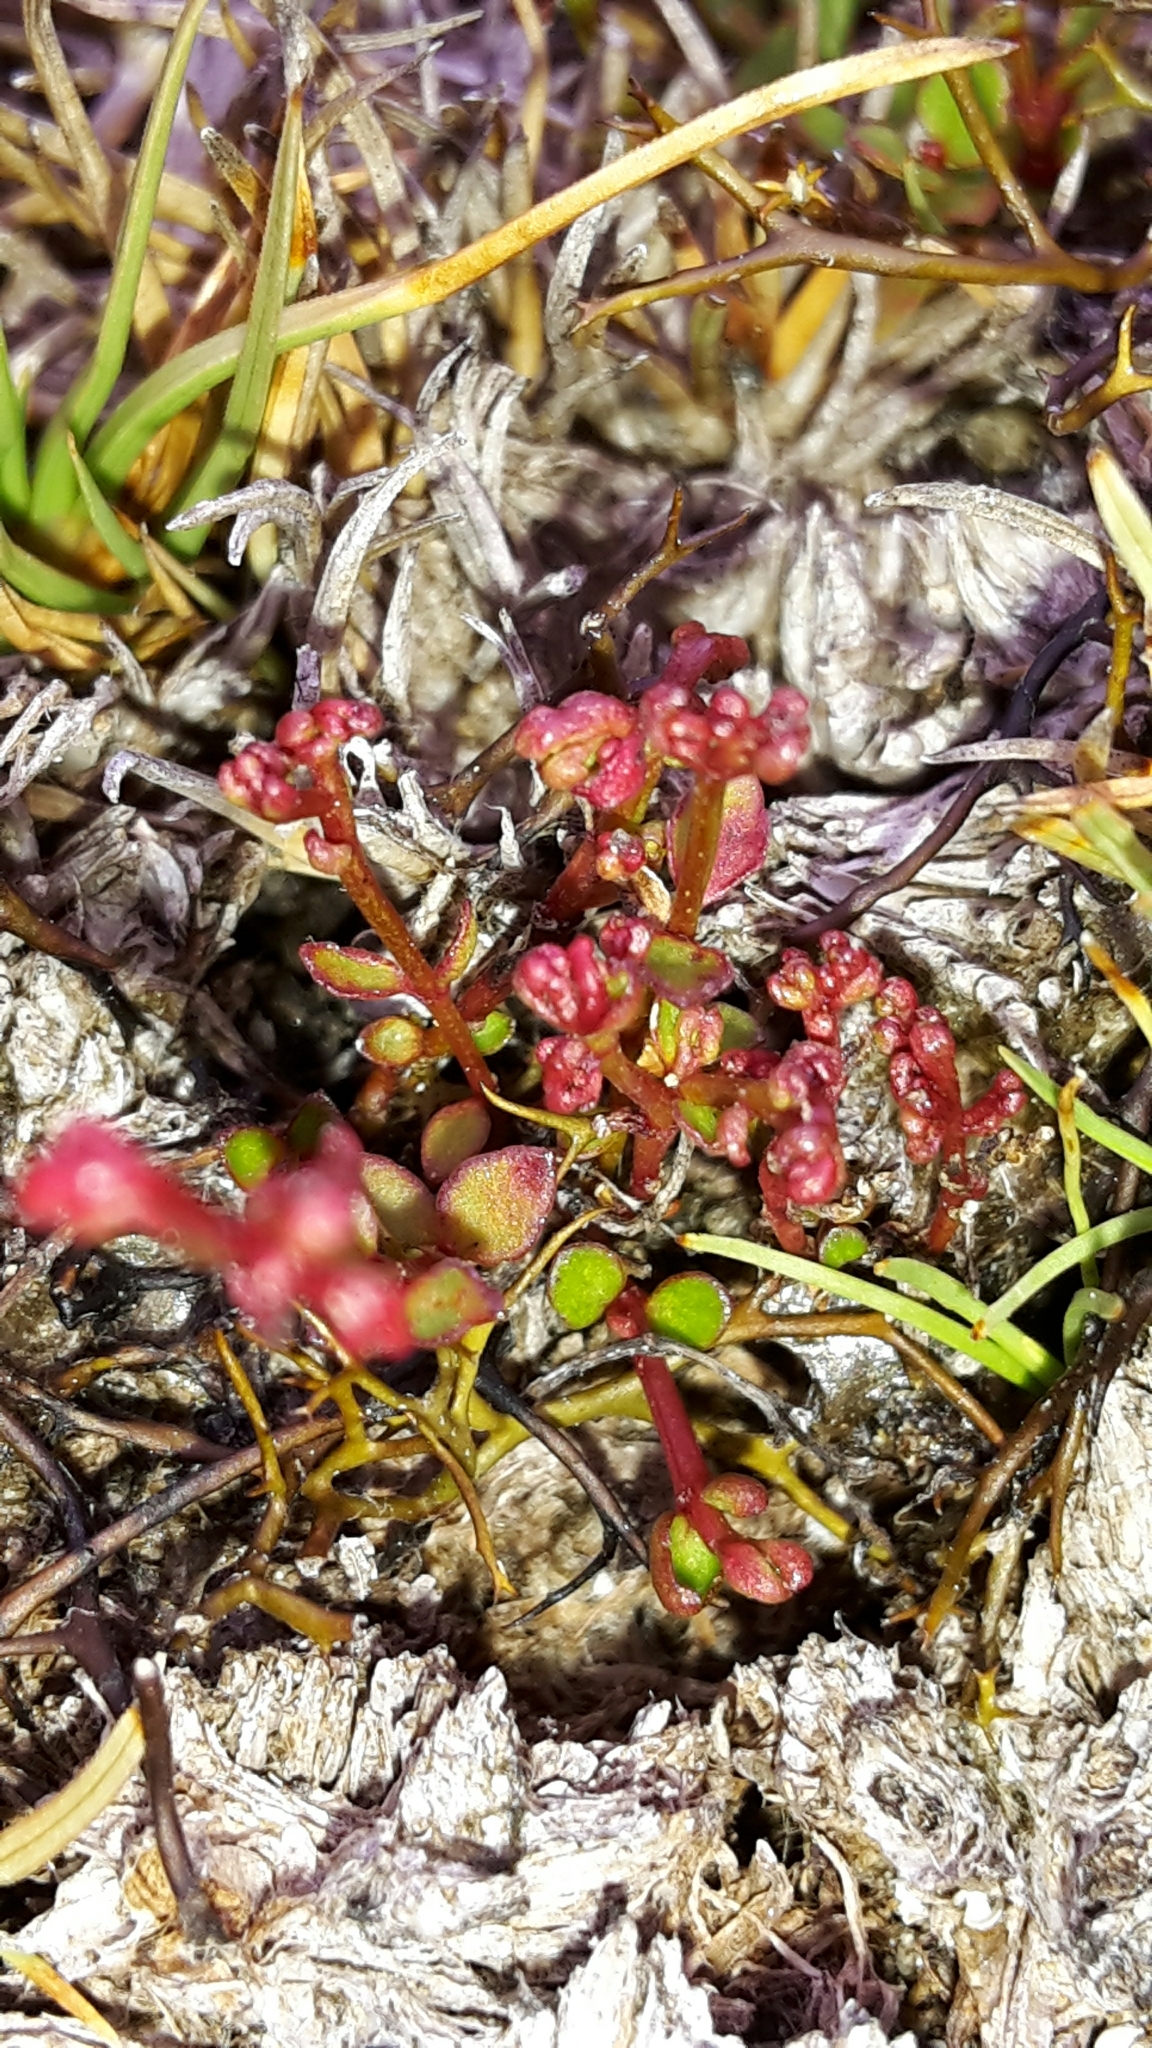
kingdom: Plantae
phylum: Tracheophyta
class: Magnoliopsida
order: Saxifragales
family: Haloragaceae
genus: Gonocarpus
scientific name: Gonocarpus micranthus
